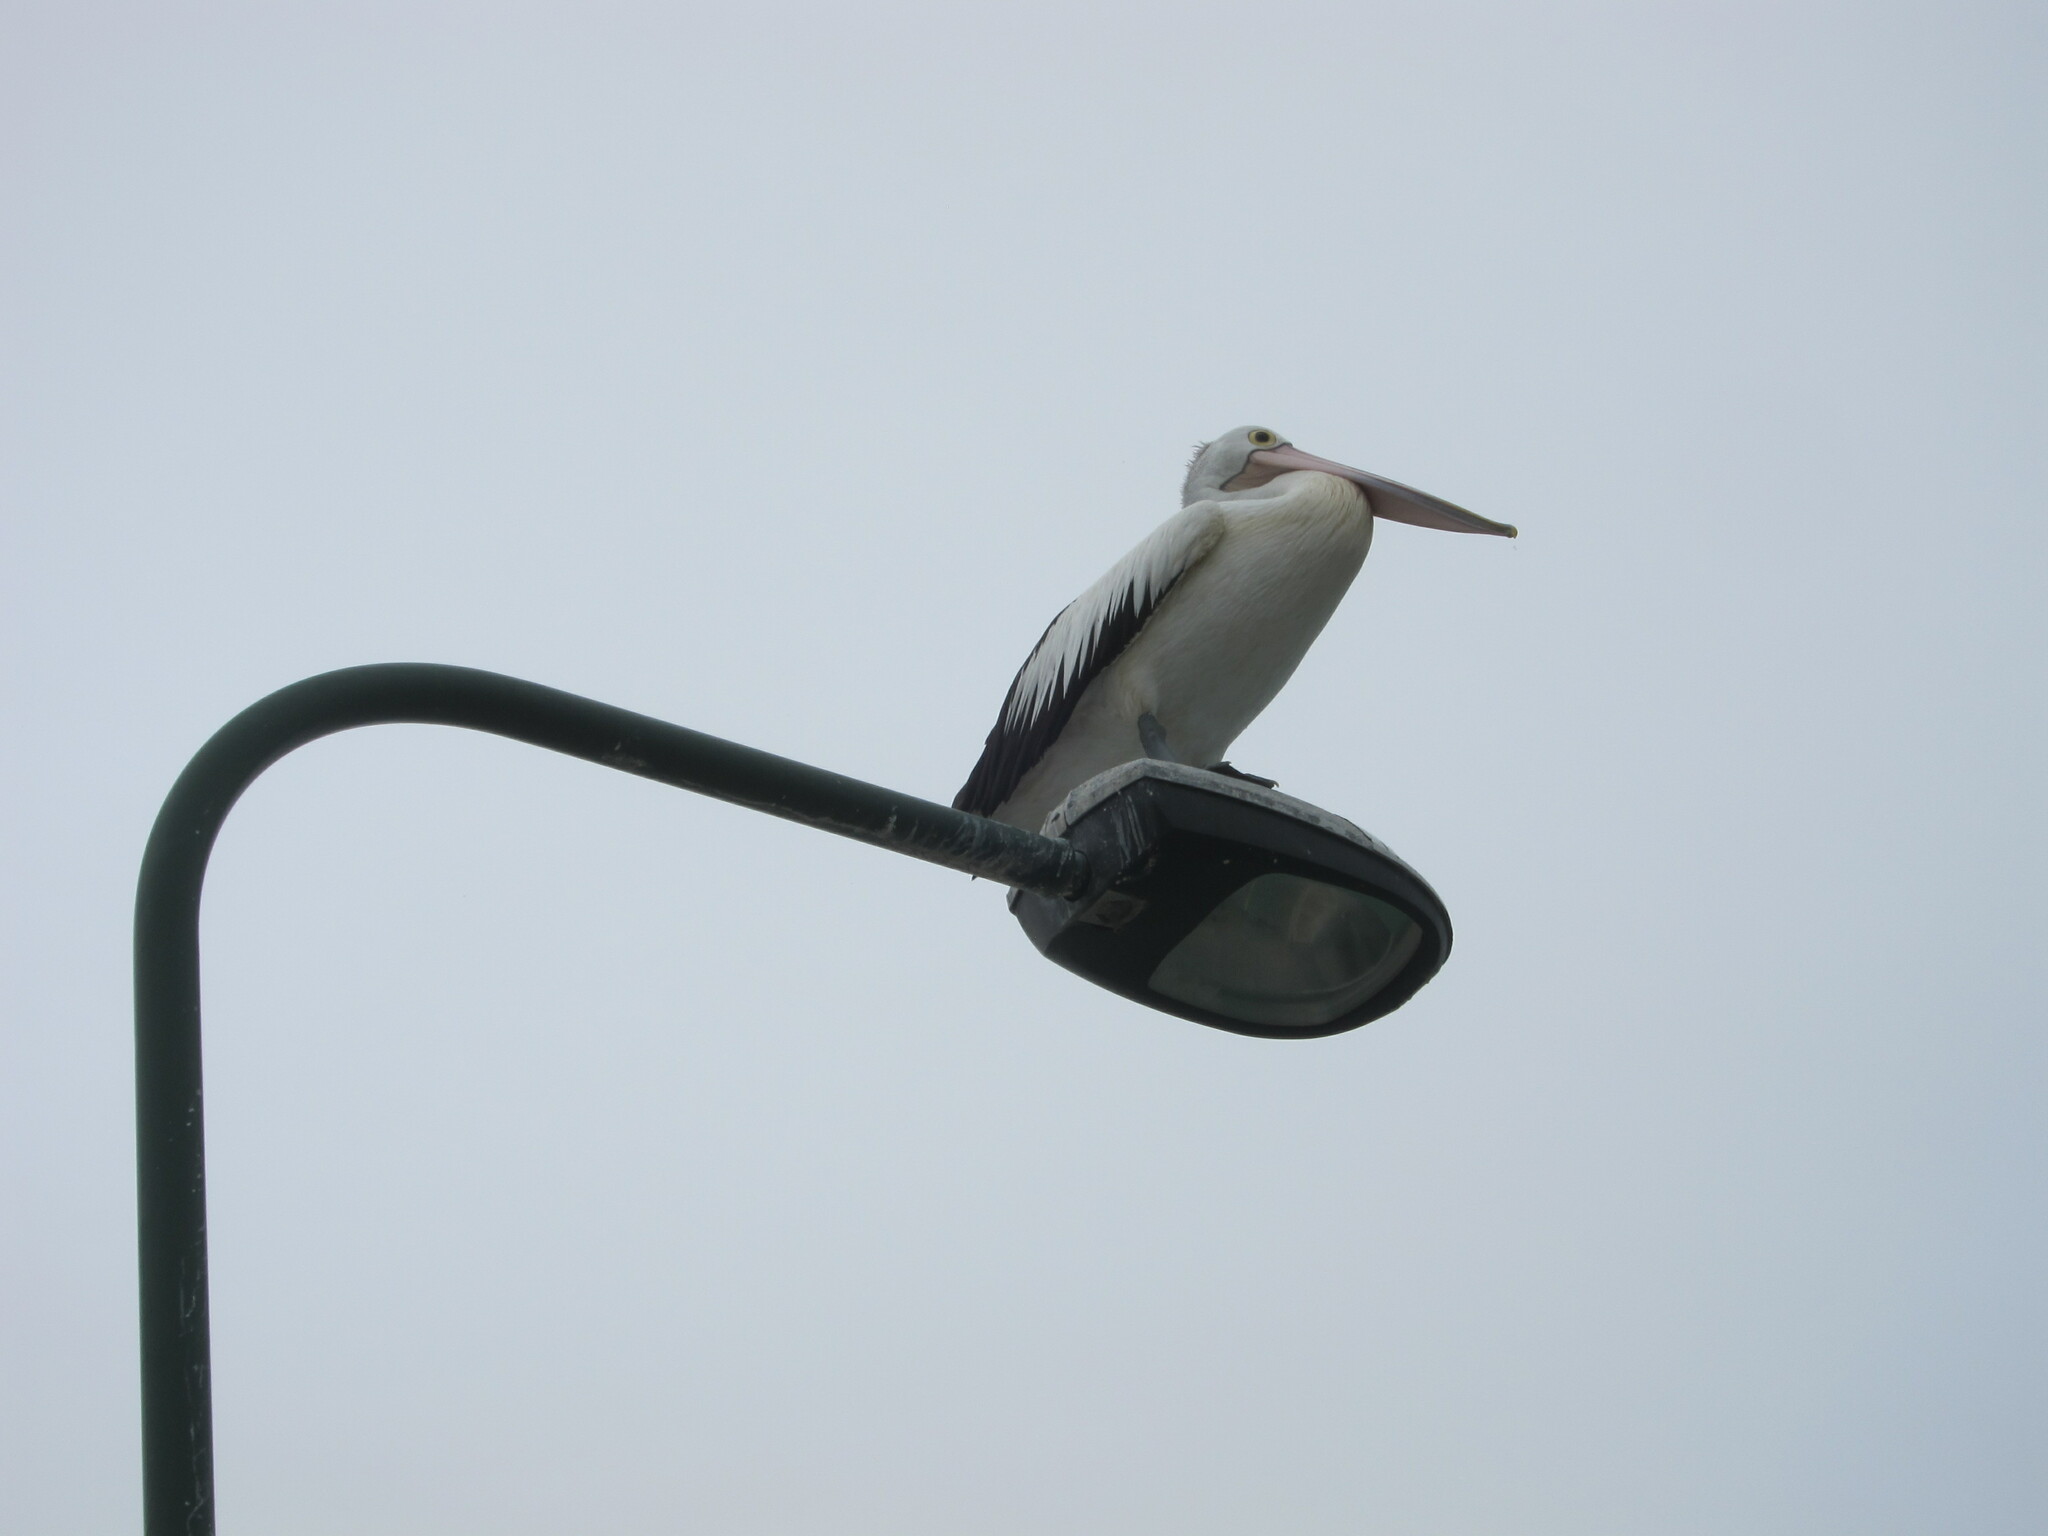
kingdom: Animalia
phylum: Chordata
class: Aves
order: Pelecaniformes
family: Pelecanidae
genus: Pelecanus
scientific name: Pelecanus conspicillatus
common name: Australian pelican
